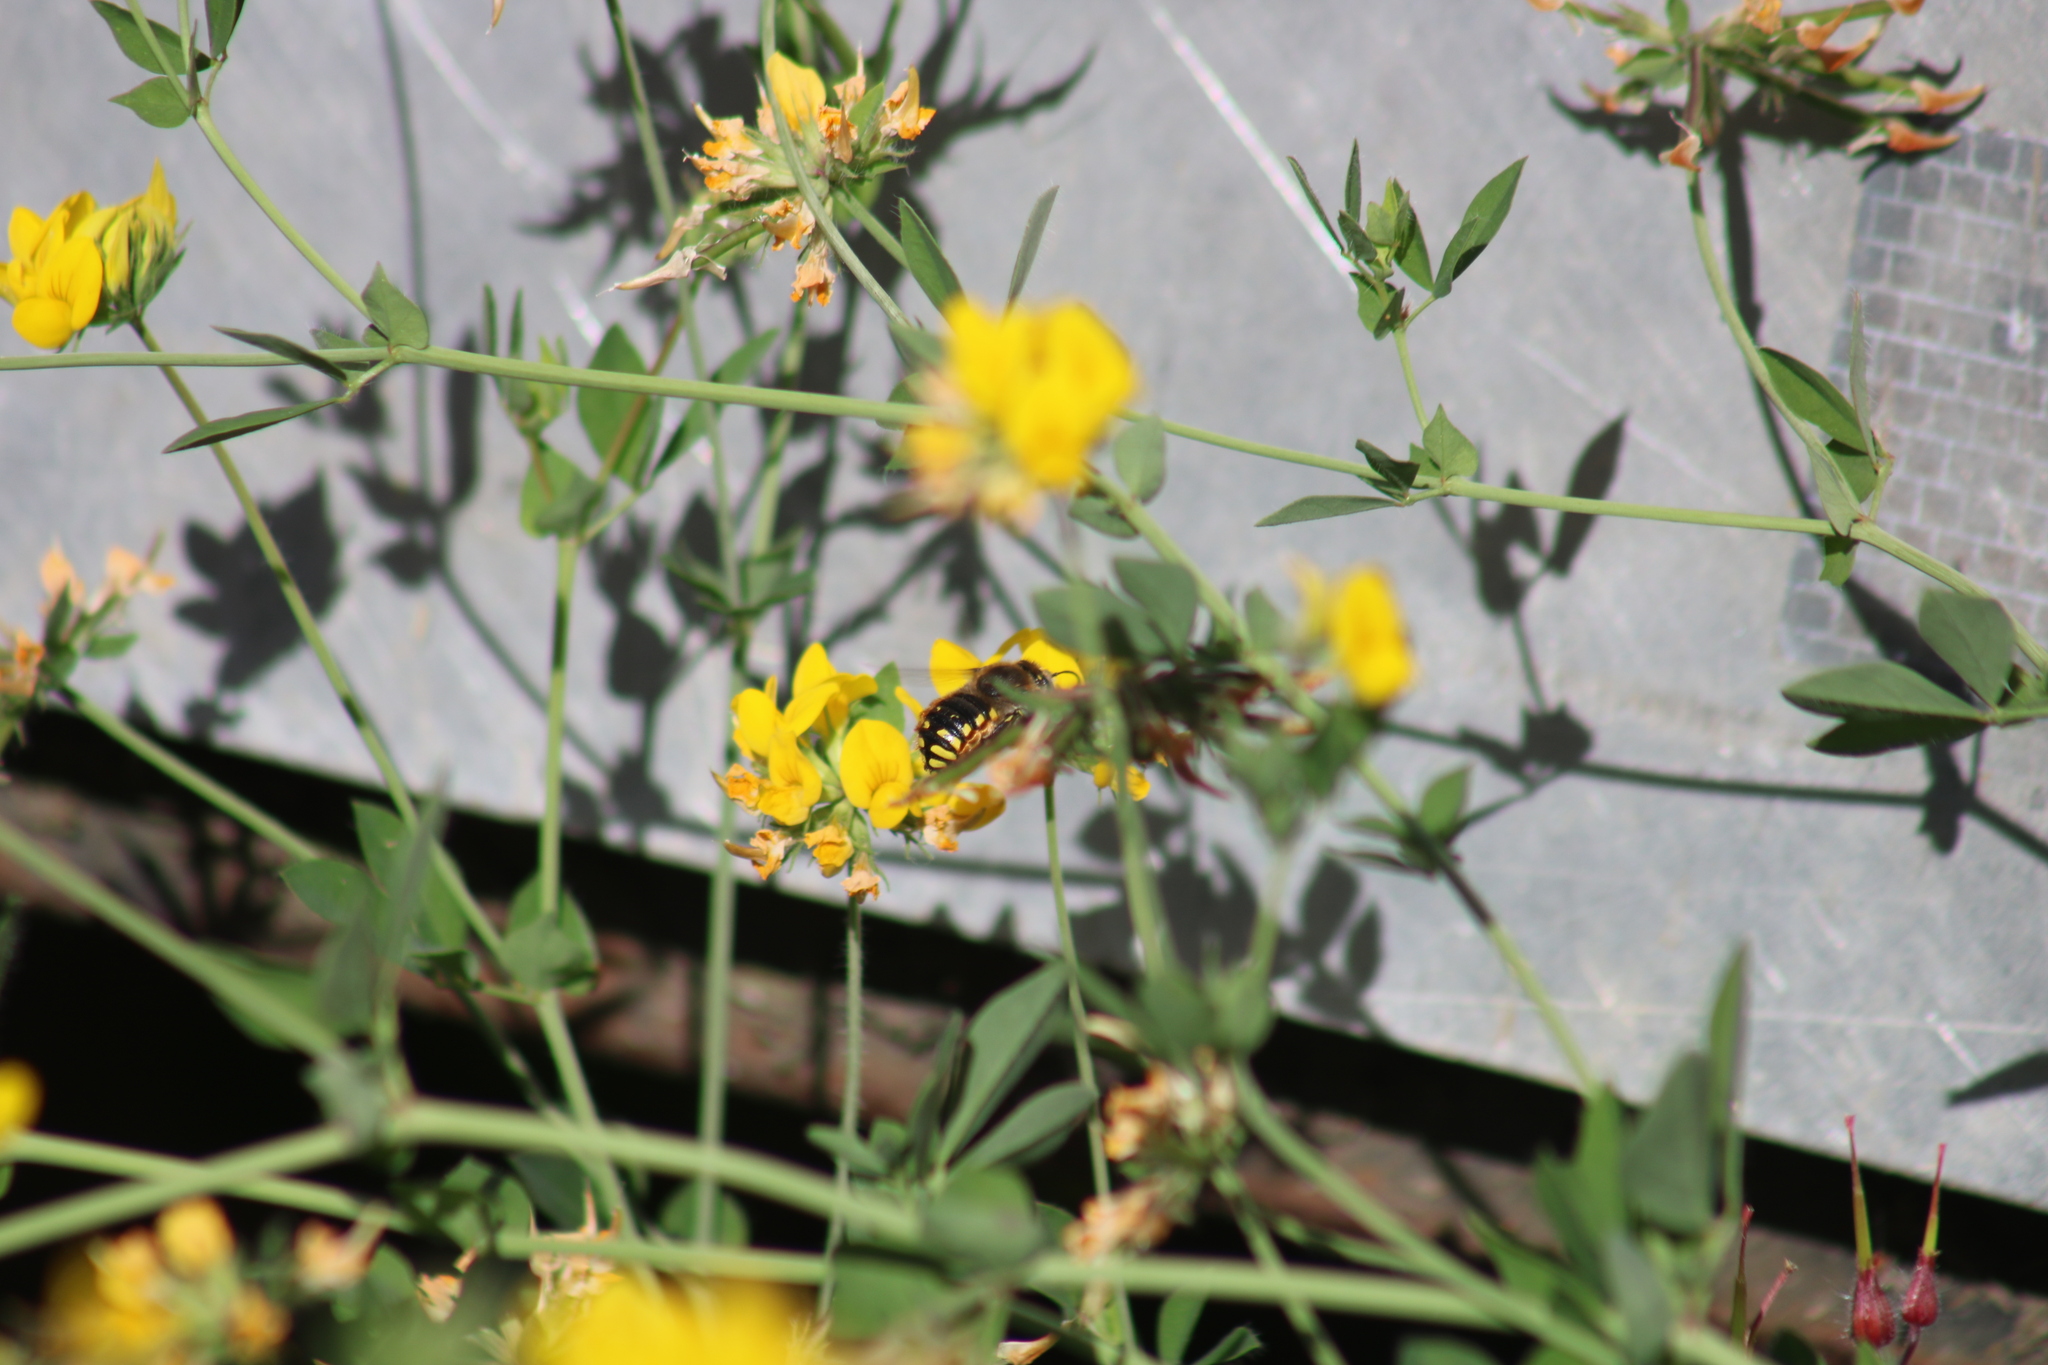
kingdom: Animalia
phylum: Arthropoda
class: Insecta
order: Hymenoptera
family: Megachilidae
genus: Anthidium
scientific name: Anthidium manicatum
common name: Wool carder bee
